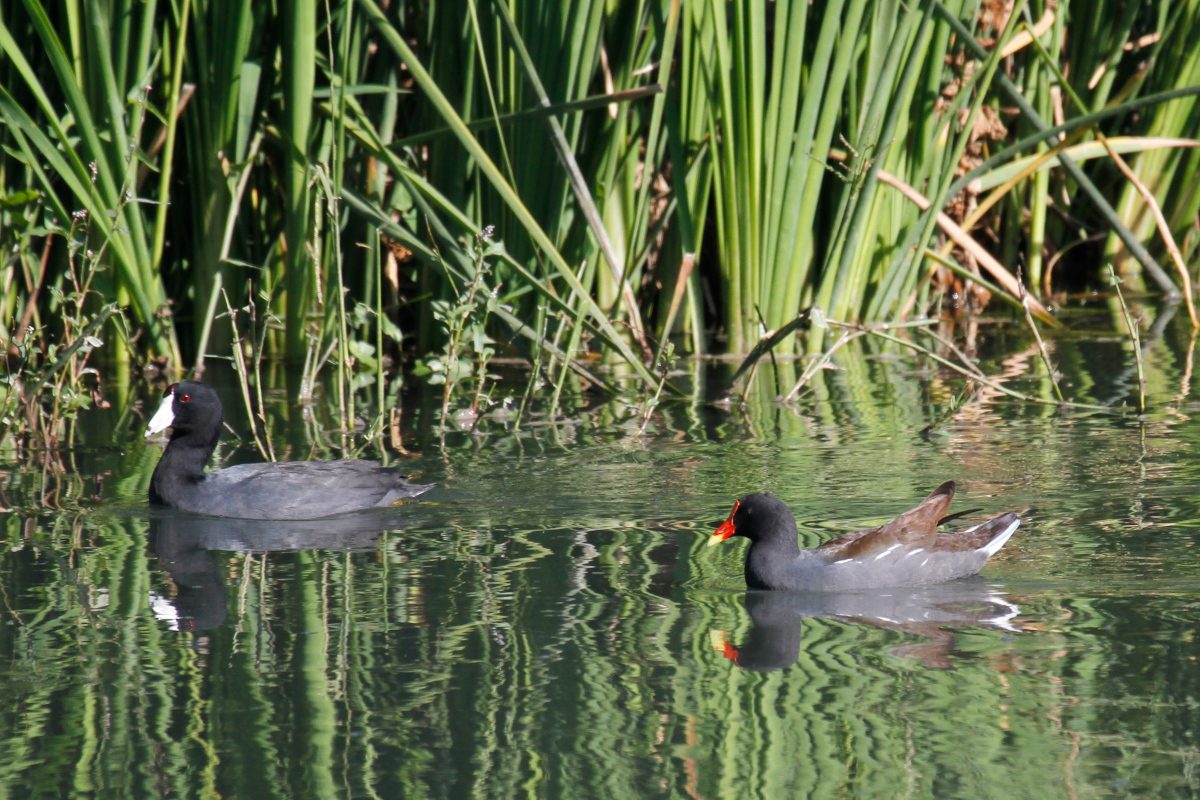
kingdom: Animalia
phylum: Chordata
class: Aves
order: Gruiformes
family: Rallidae
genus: Gallinula
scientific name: Gallinula chloropus
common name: Common moorhen
